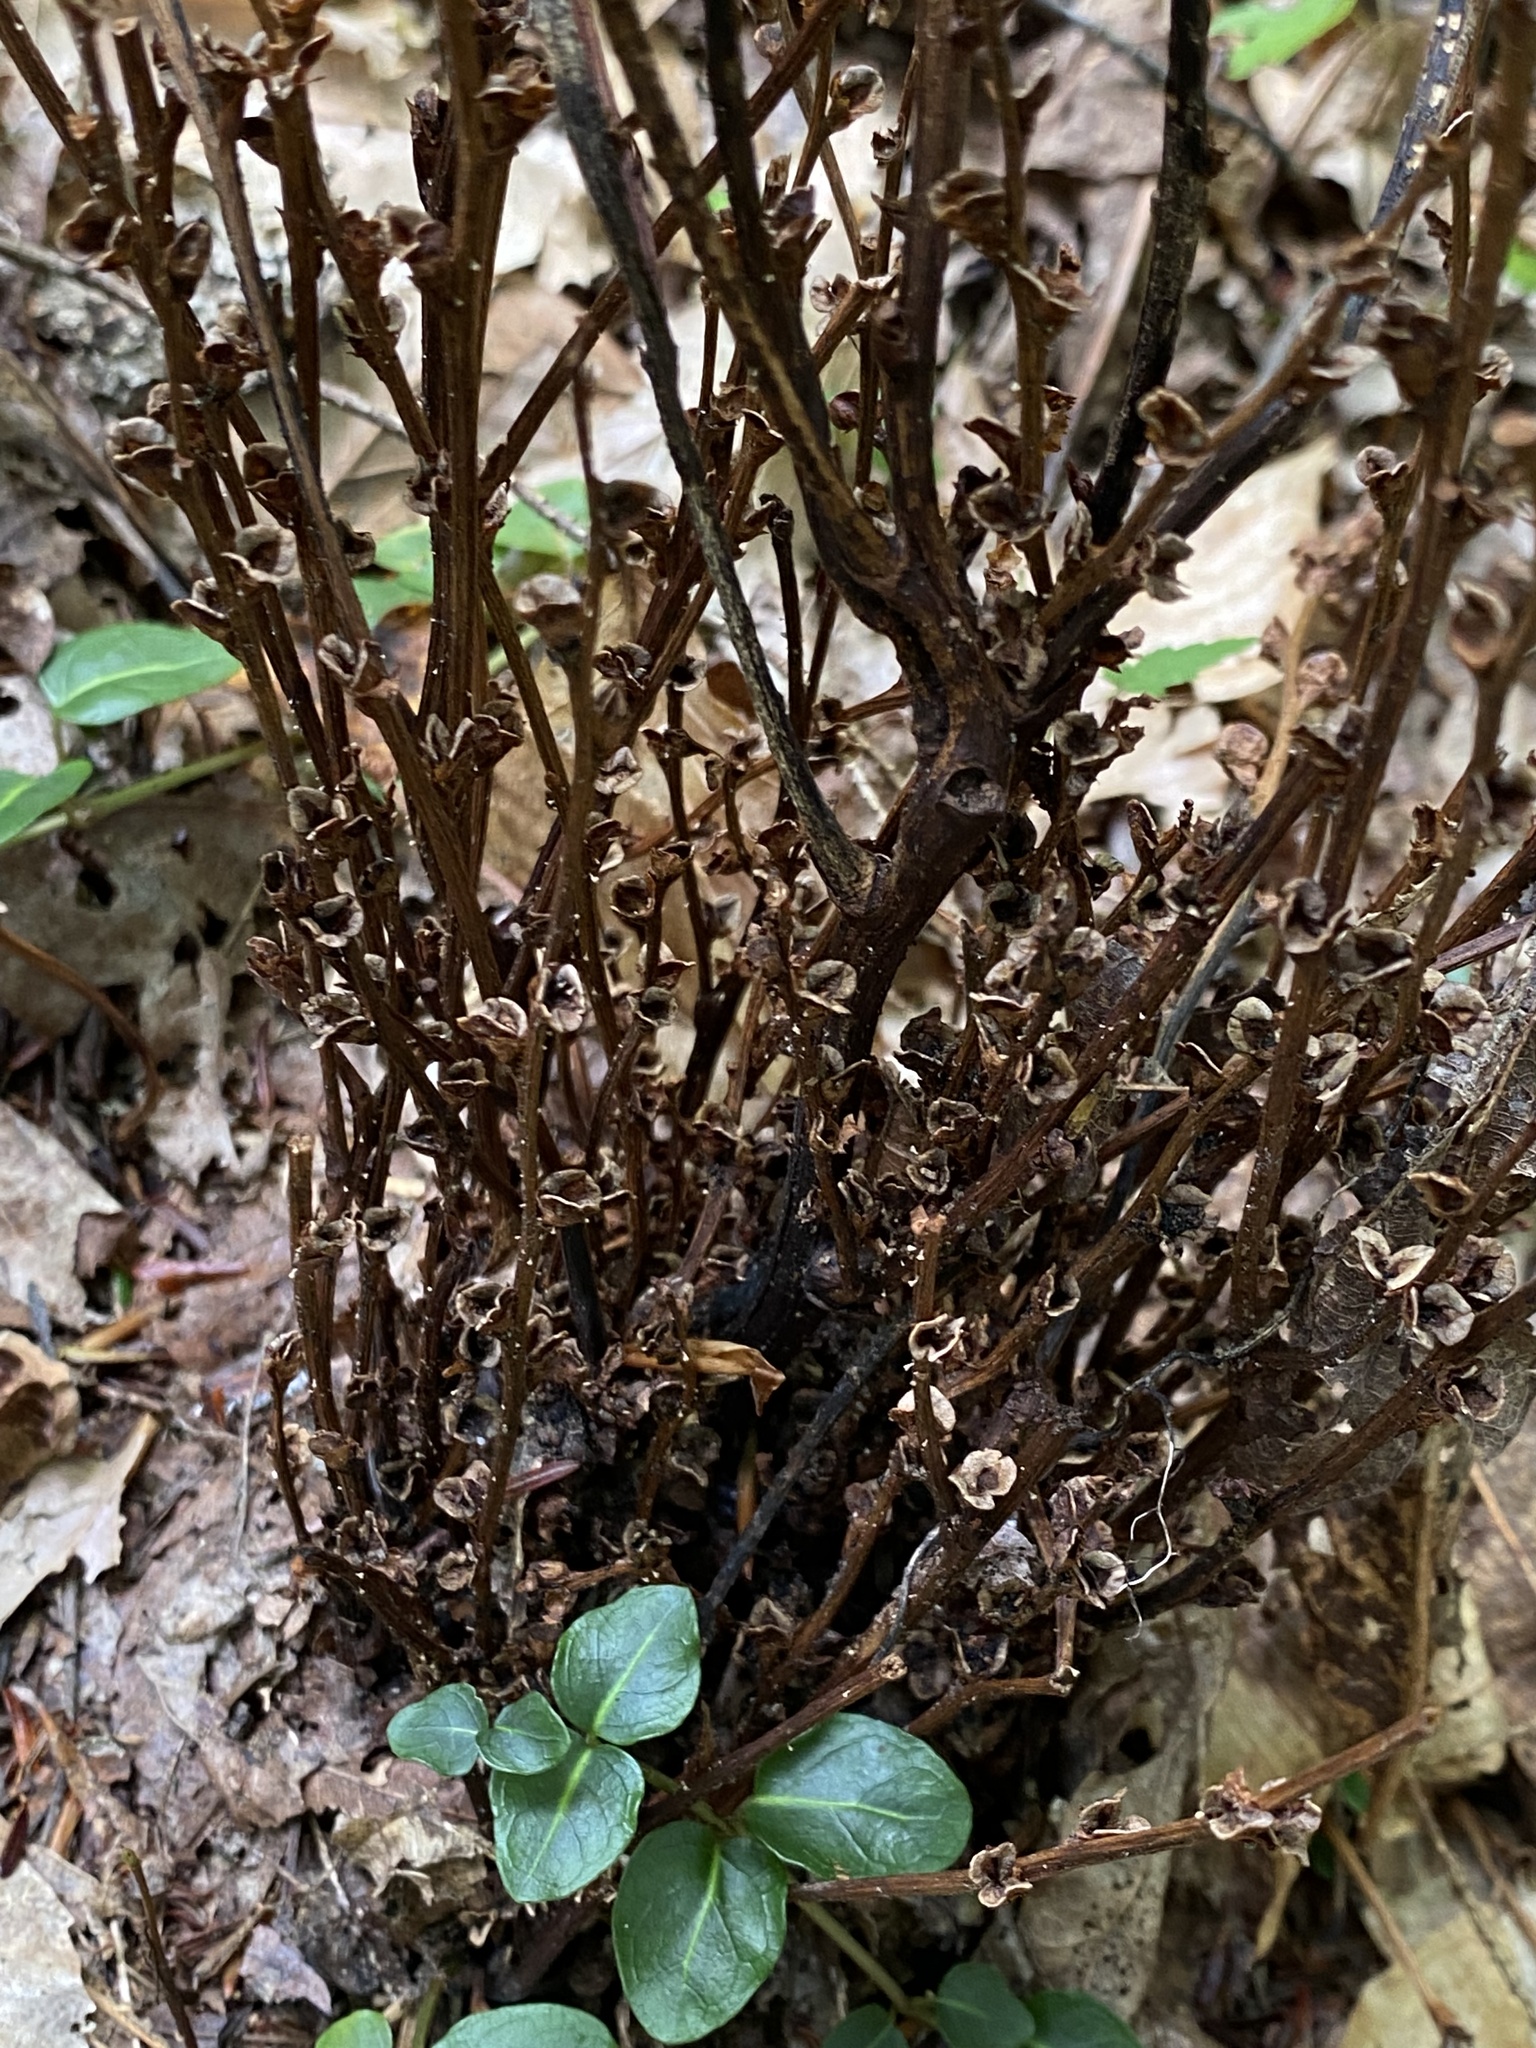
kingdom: Plantae
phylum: Tracheophyta
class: Magnoliopsida
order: Lamiales
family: Orobanchaceae
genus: Epifagus
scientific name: Epifagus virginiana
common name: Beechdrops
